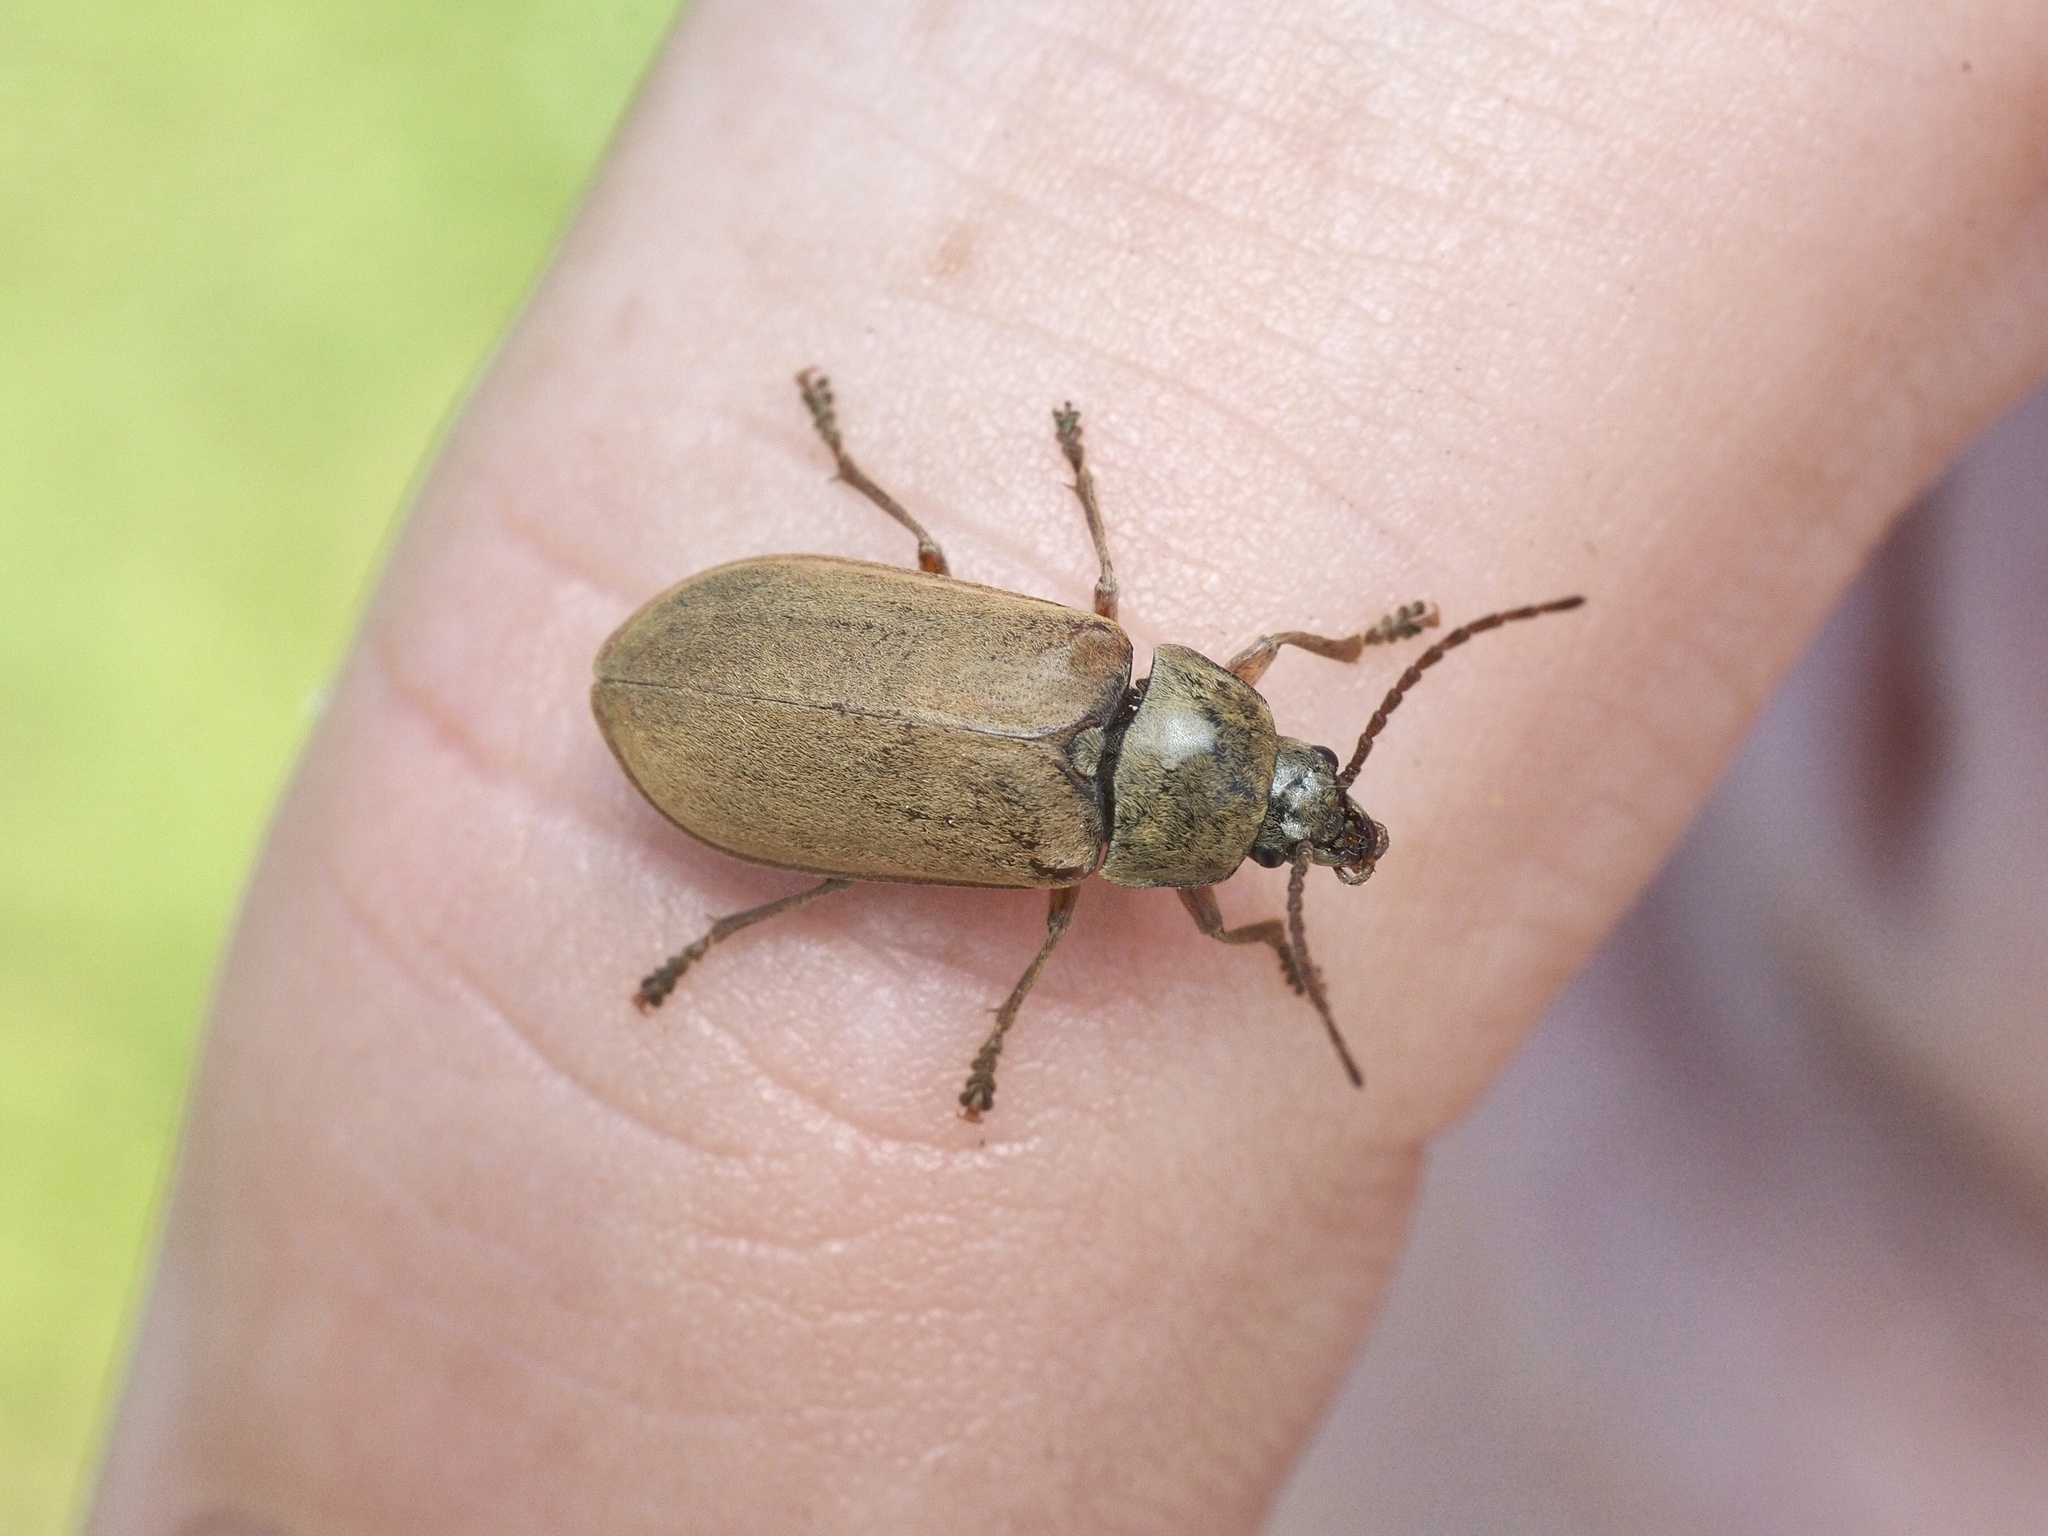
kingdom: Animalia
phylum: Arthropoda
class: Insecta
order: Coleoptera
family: Dascillidae
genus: Dascillus
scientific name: Dascillus cervinus
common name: Orchid beetle
